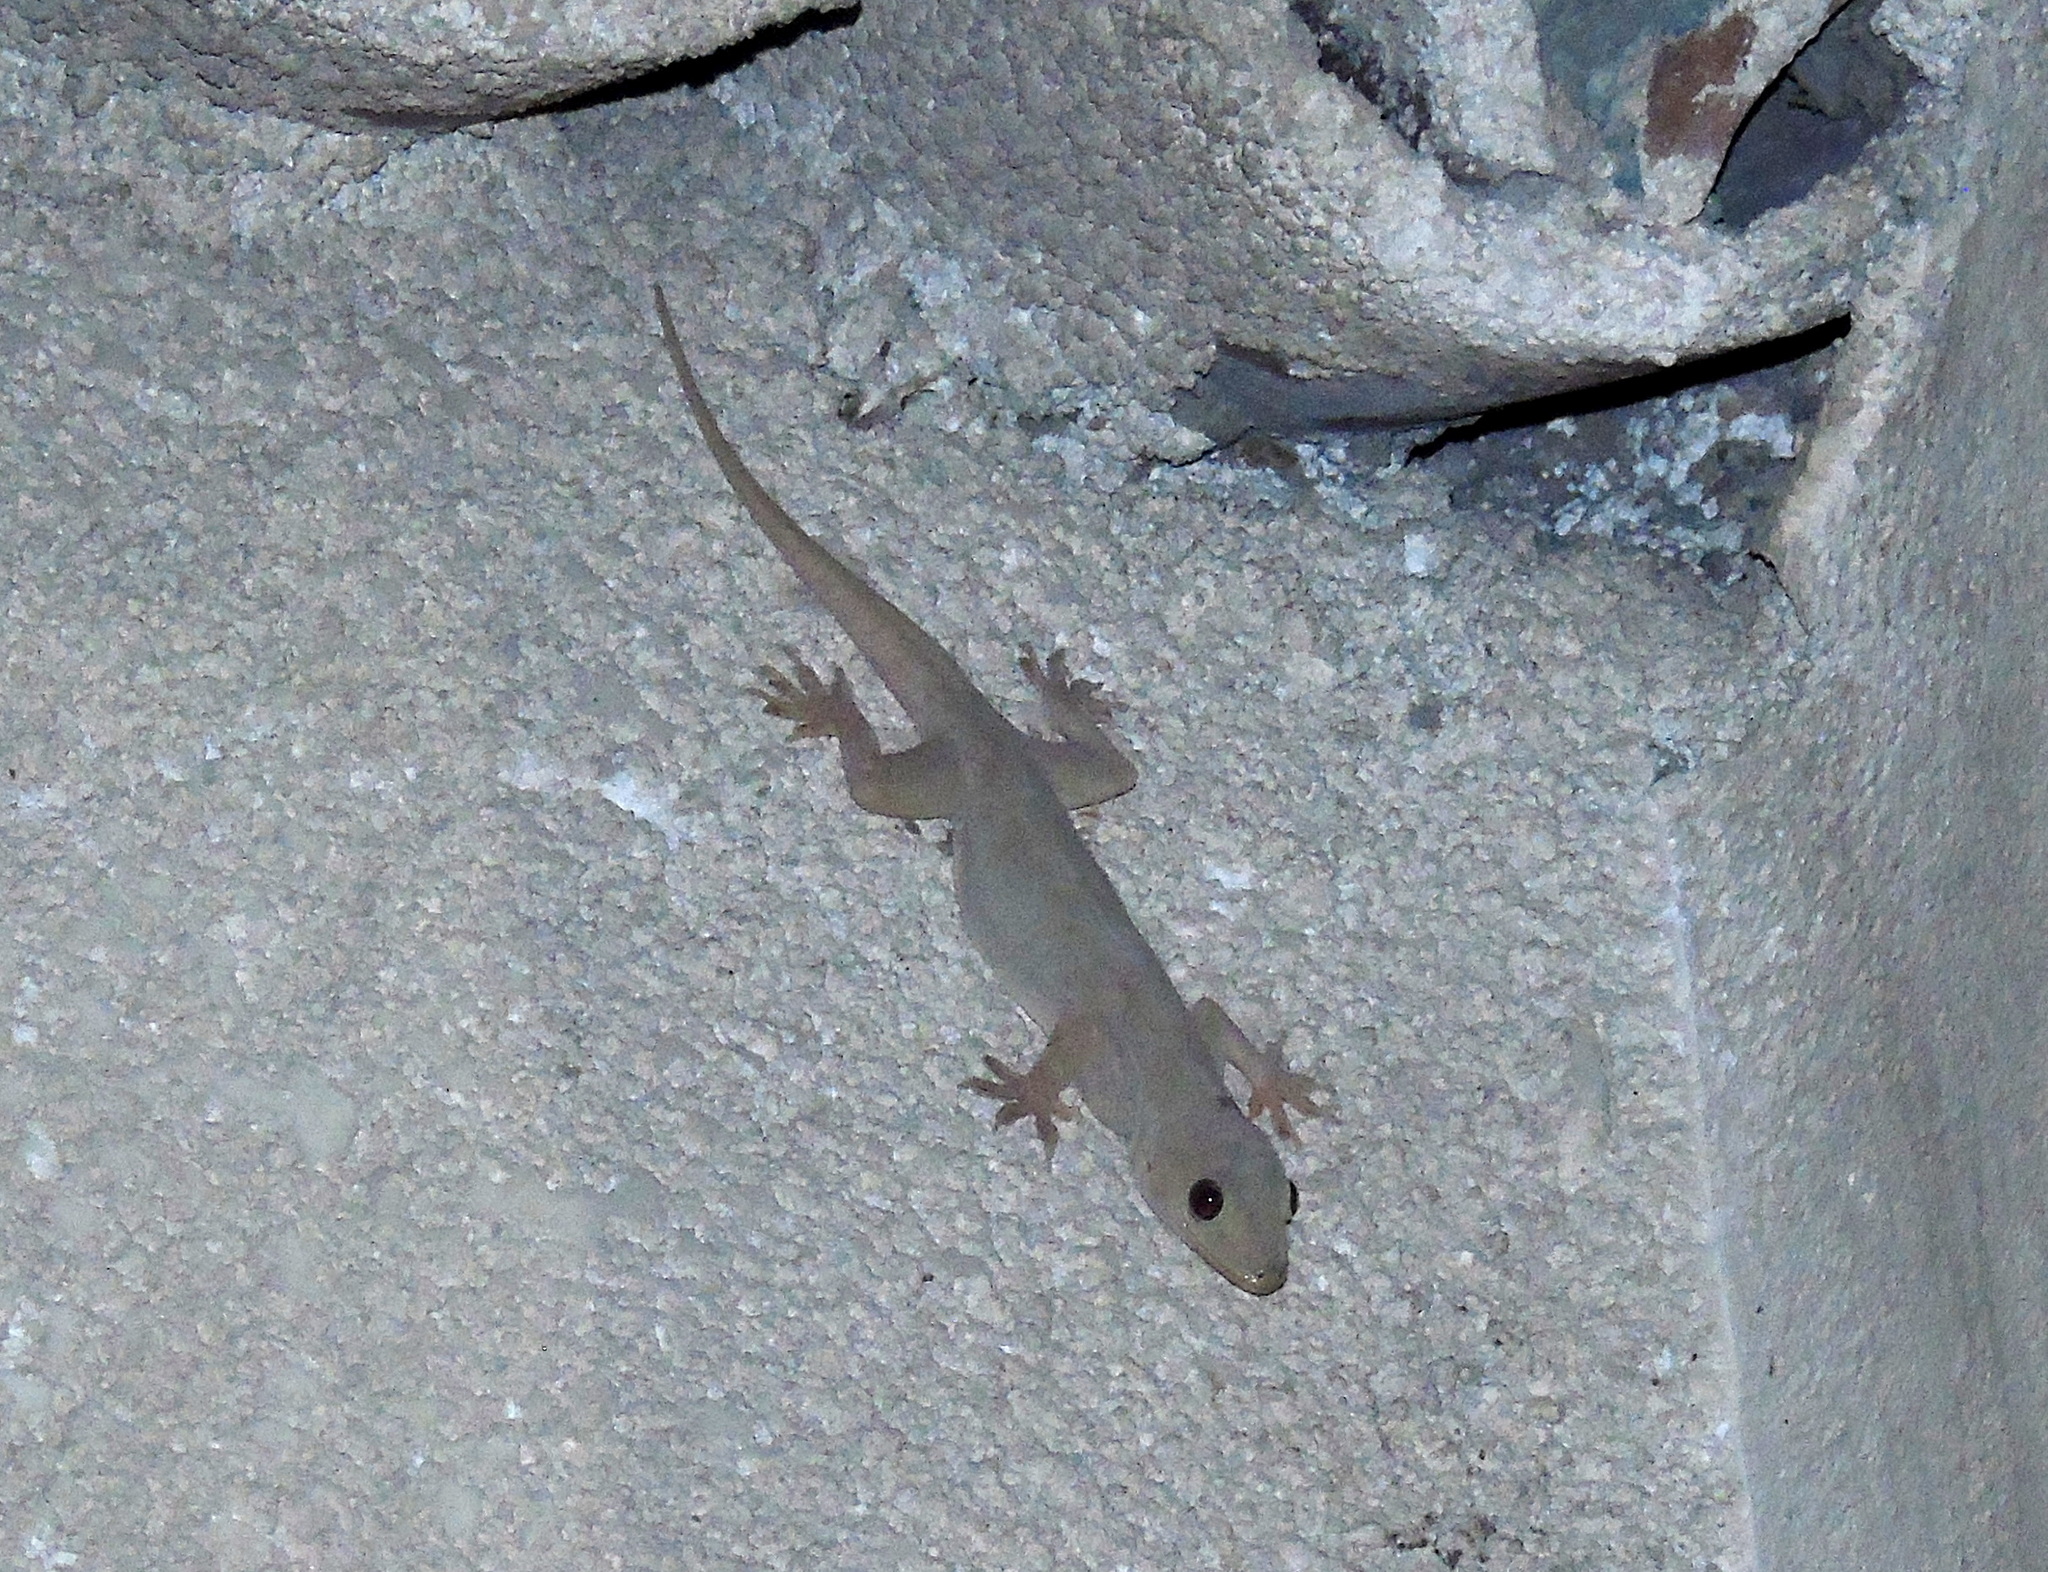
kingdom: Animalia
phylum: Chordata
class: Squamata
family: Gekkonidae
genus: Hemidactylus
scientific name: Hemidactylus flaviviridis
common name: Northern house gecko
